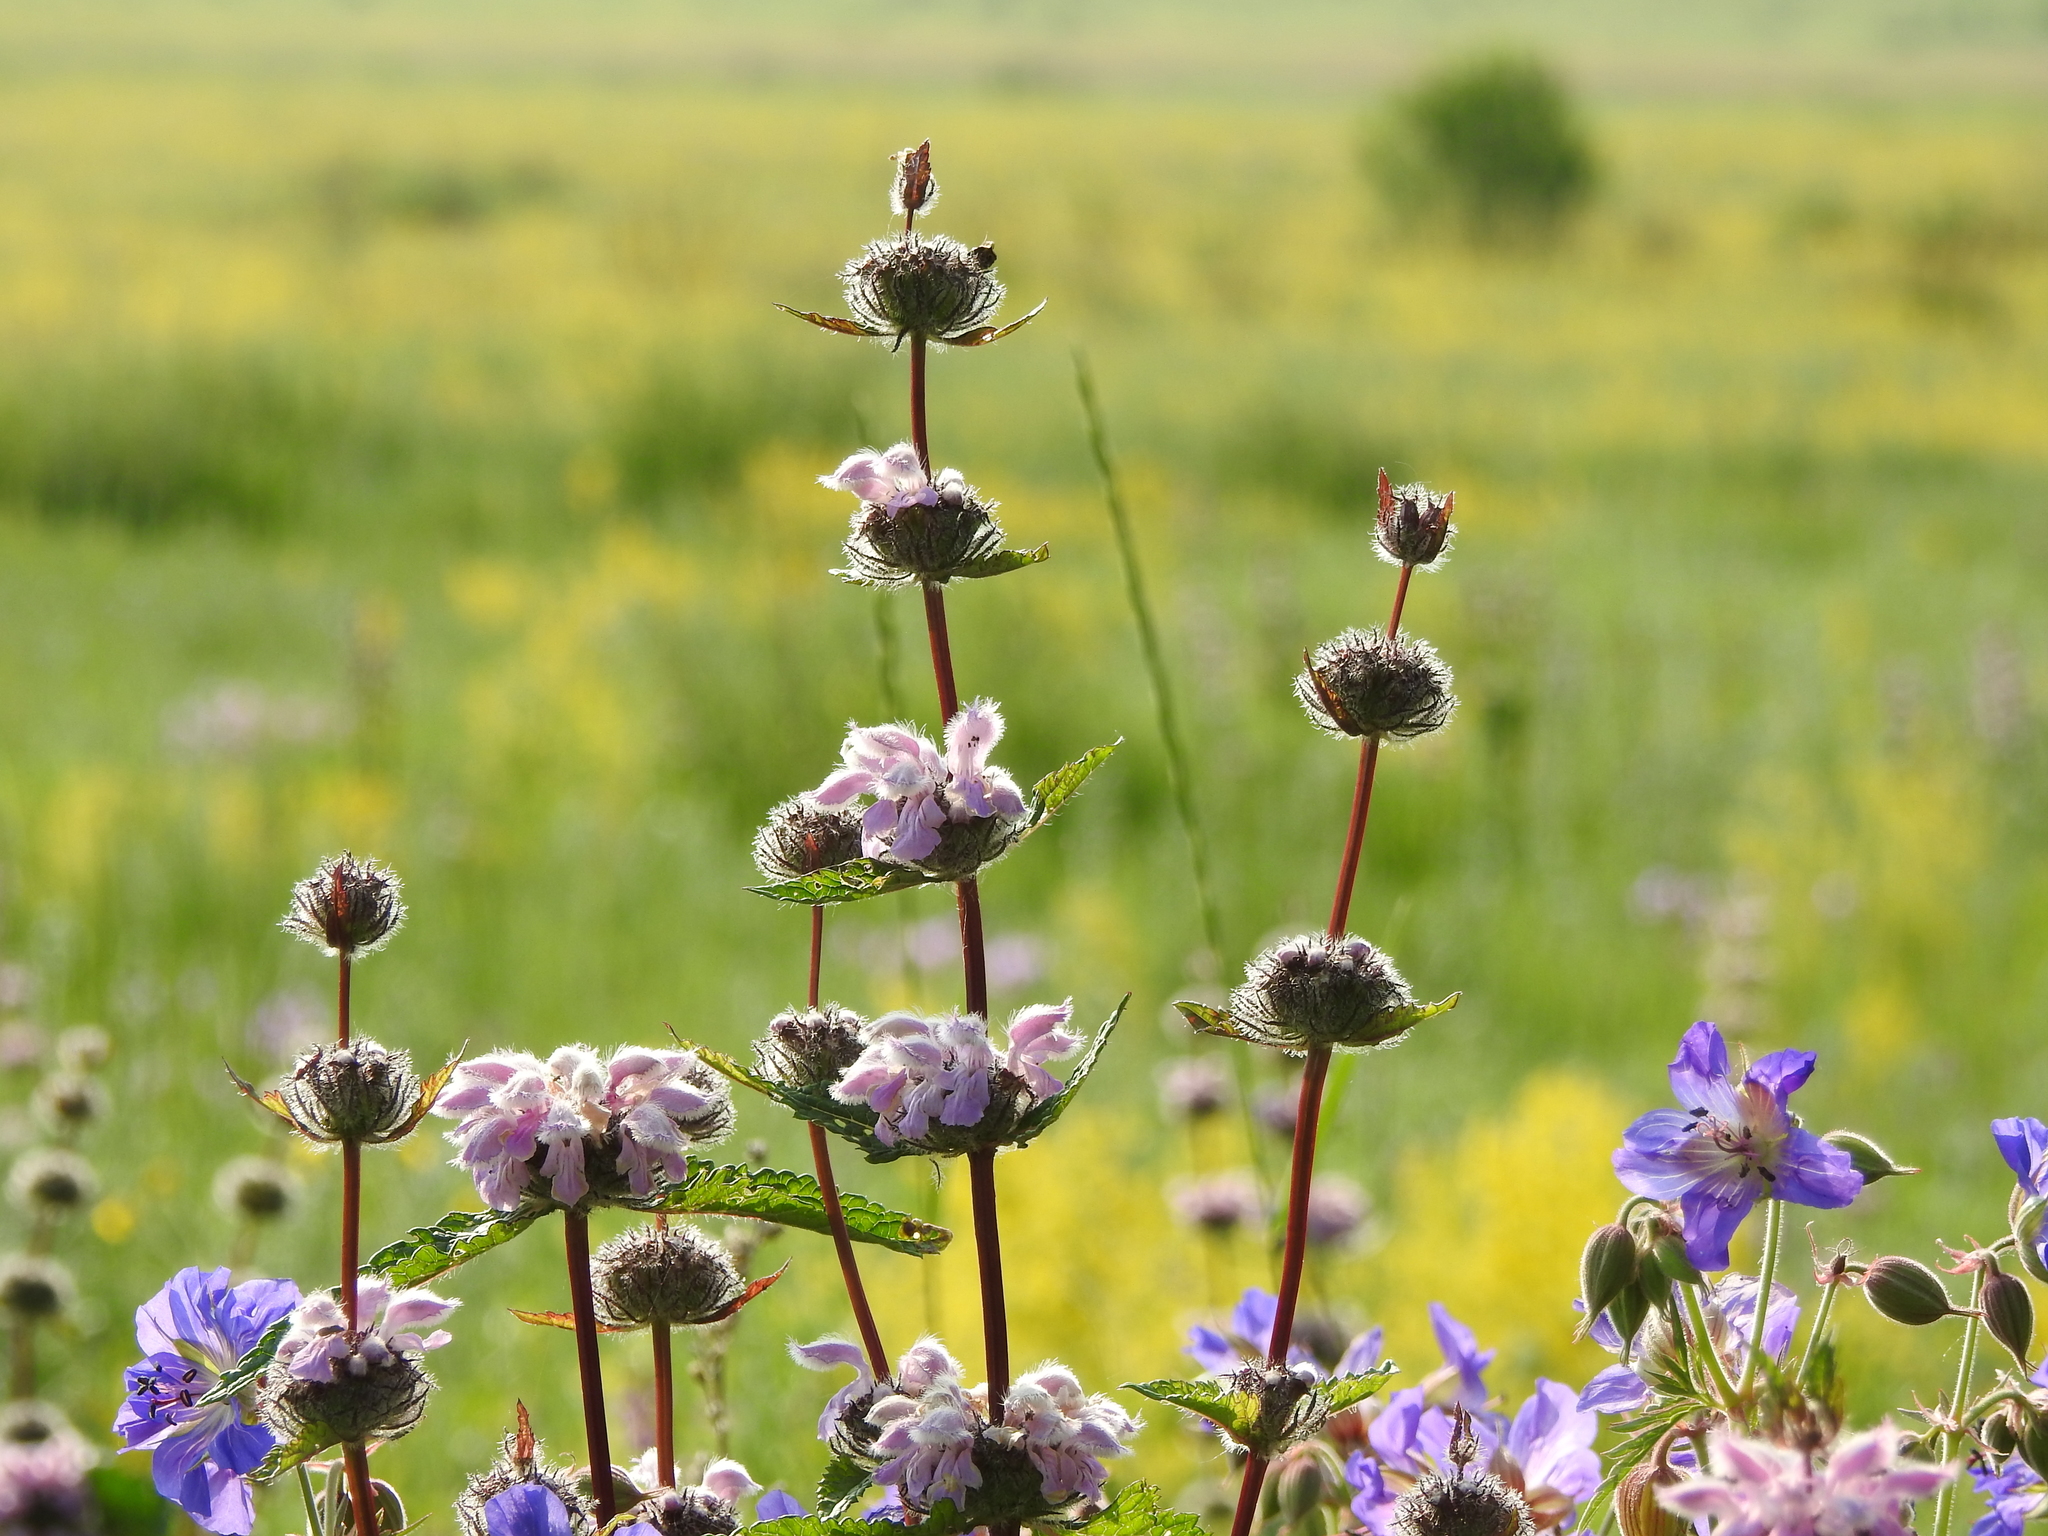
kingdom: Plantae
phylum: Tracheophyta
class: Magnoliopsida
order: Lamiales
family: Lamiaceae
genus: Phlomoides
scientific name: Phlomoides tuberosa
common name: Tuberous jerusalem sage
